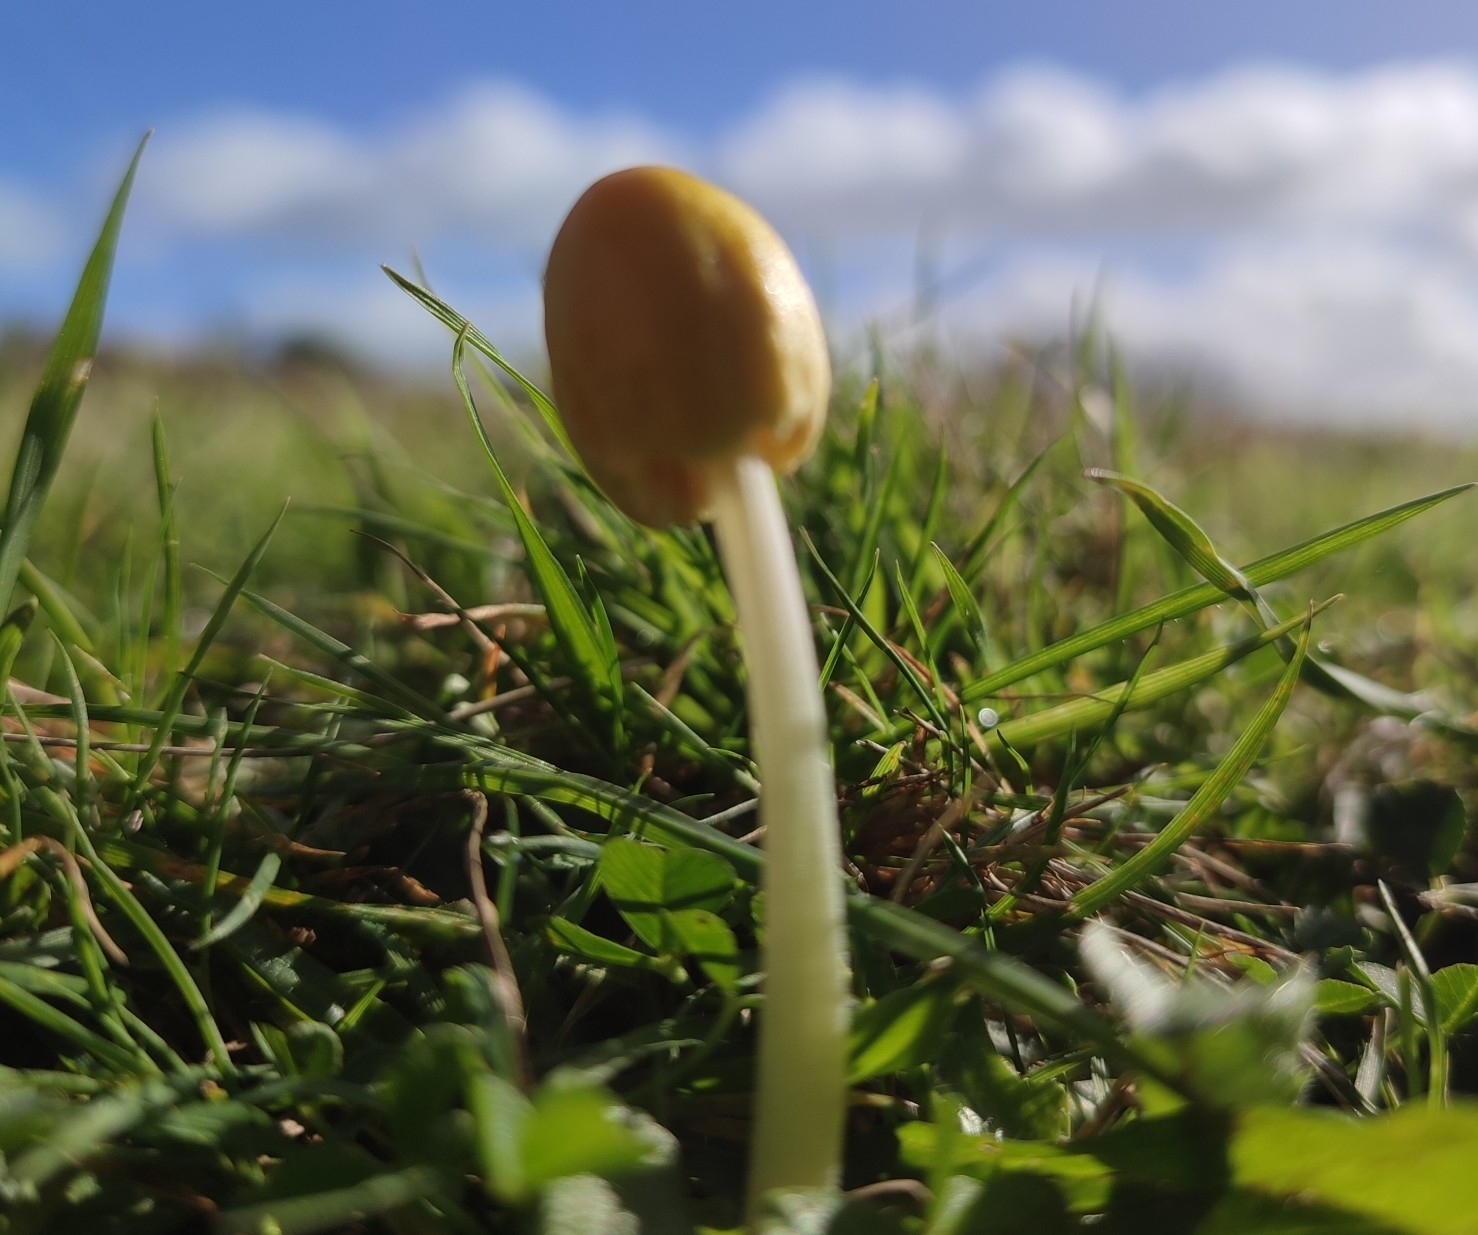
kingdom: Fungi
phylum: Basidiomycota
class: Agaricomycetes
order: Agaricales
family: Bolbitiaceae
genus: Bolbitius
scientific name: Bolbitius titubans
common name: Yellow fieldcap
